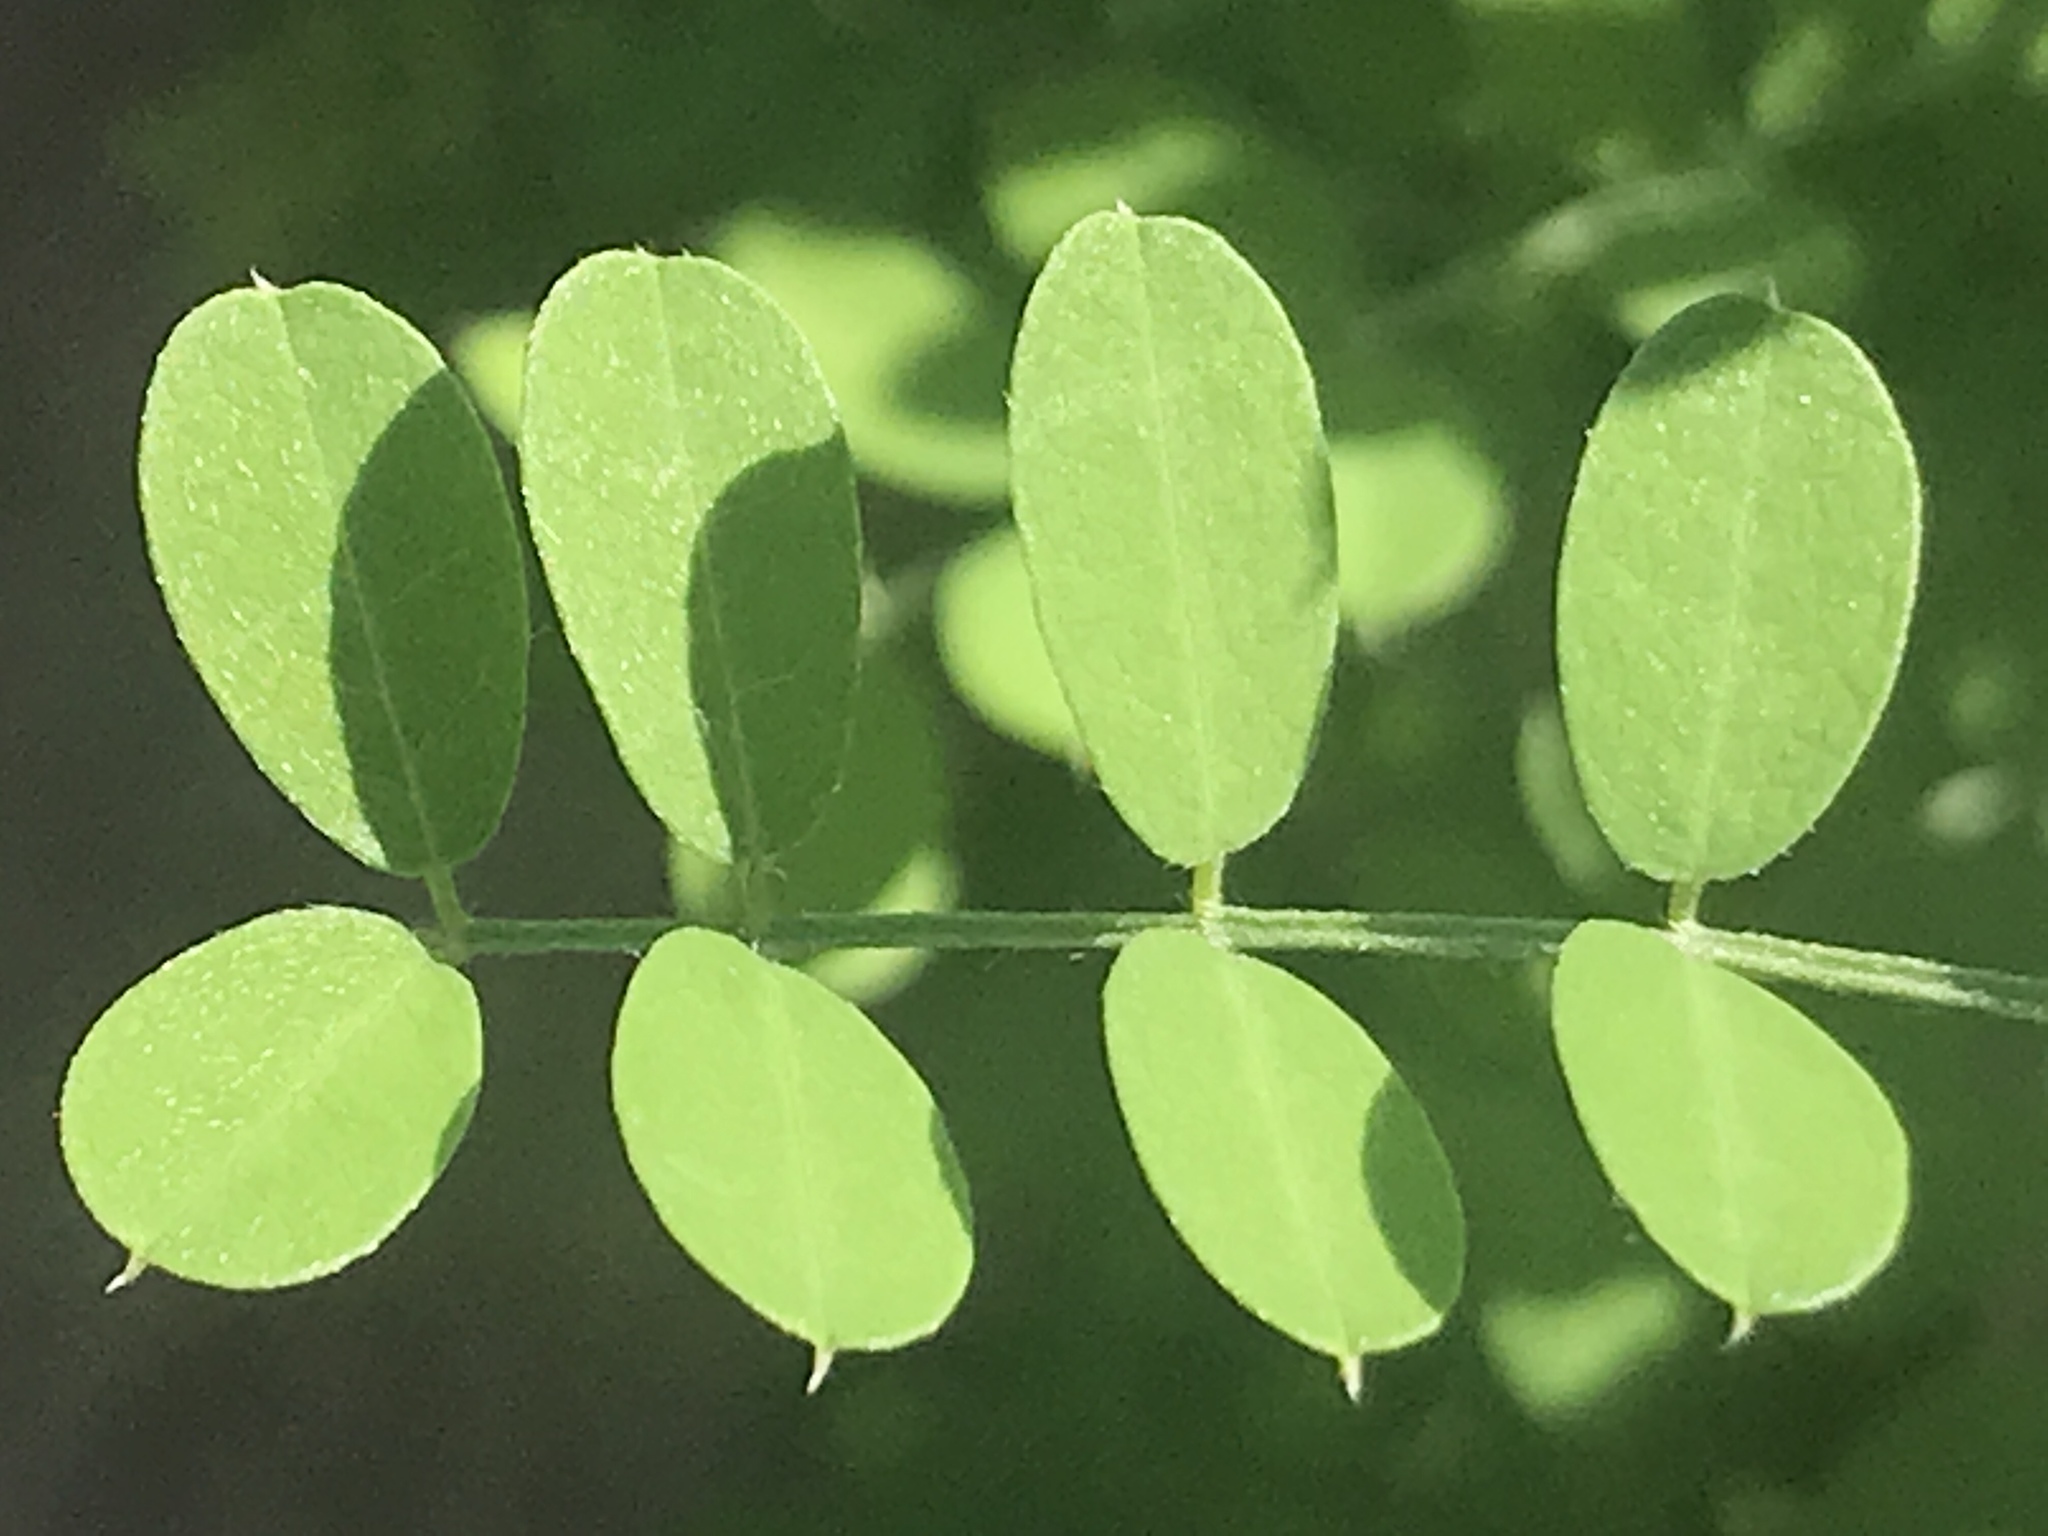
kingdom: Plantae
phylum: Tracheophyta
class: Magnoliopsida
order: Fabales
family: Fabaceae
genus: Coursetia
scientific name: Coursetia glandulosa
